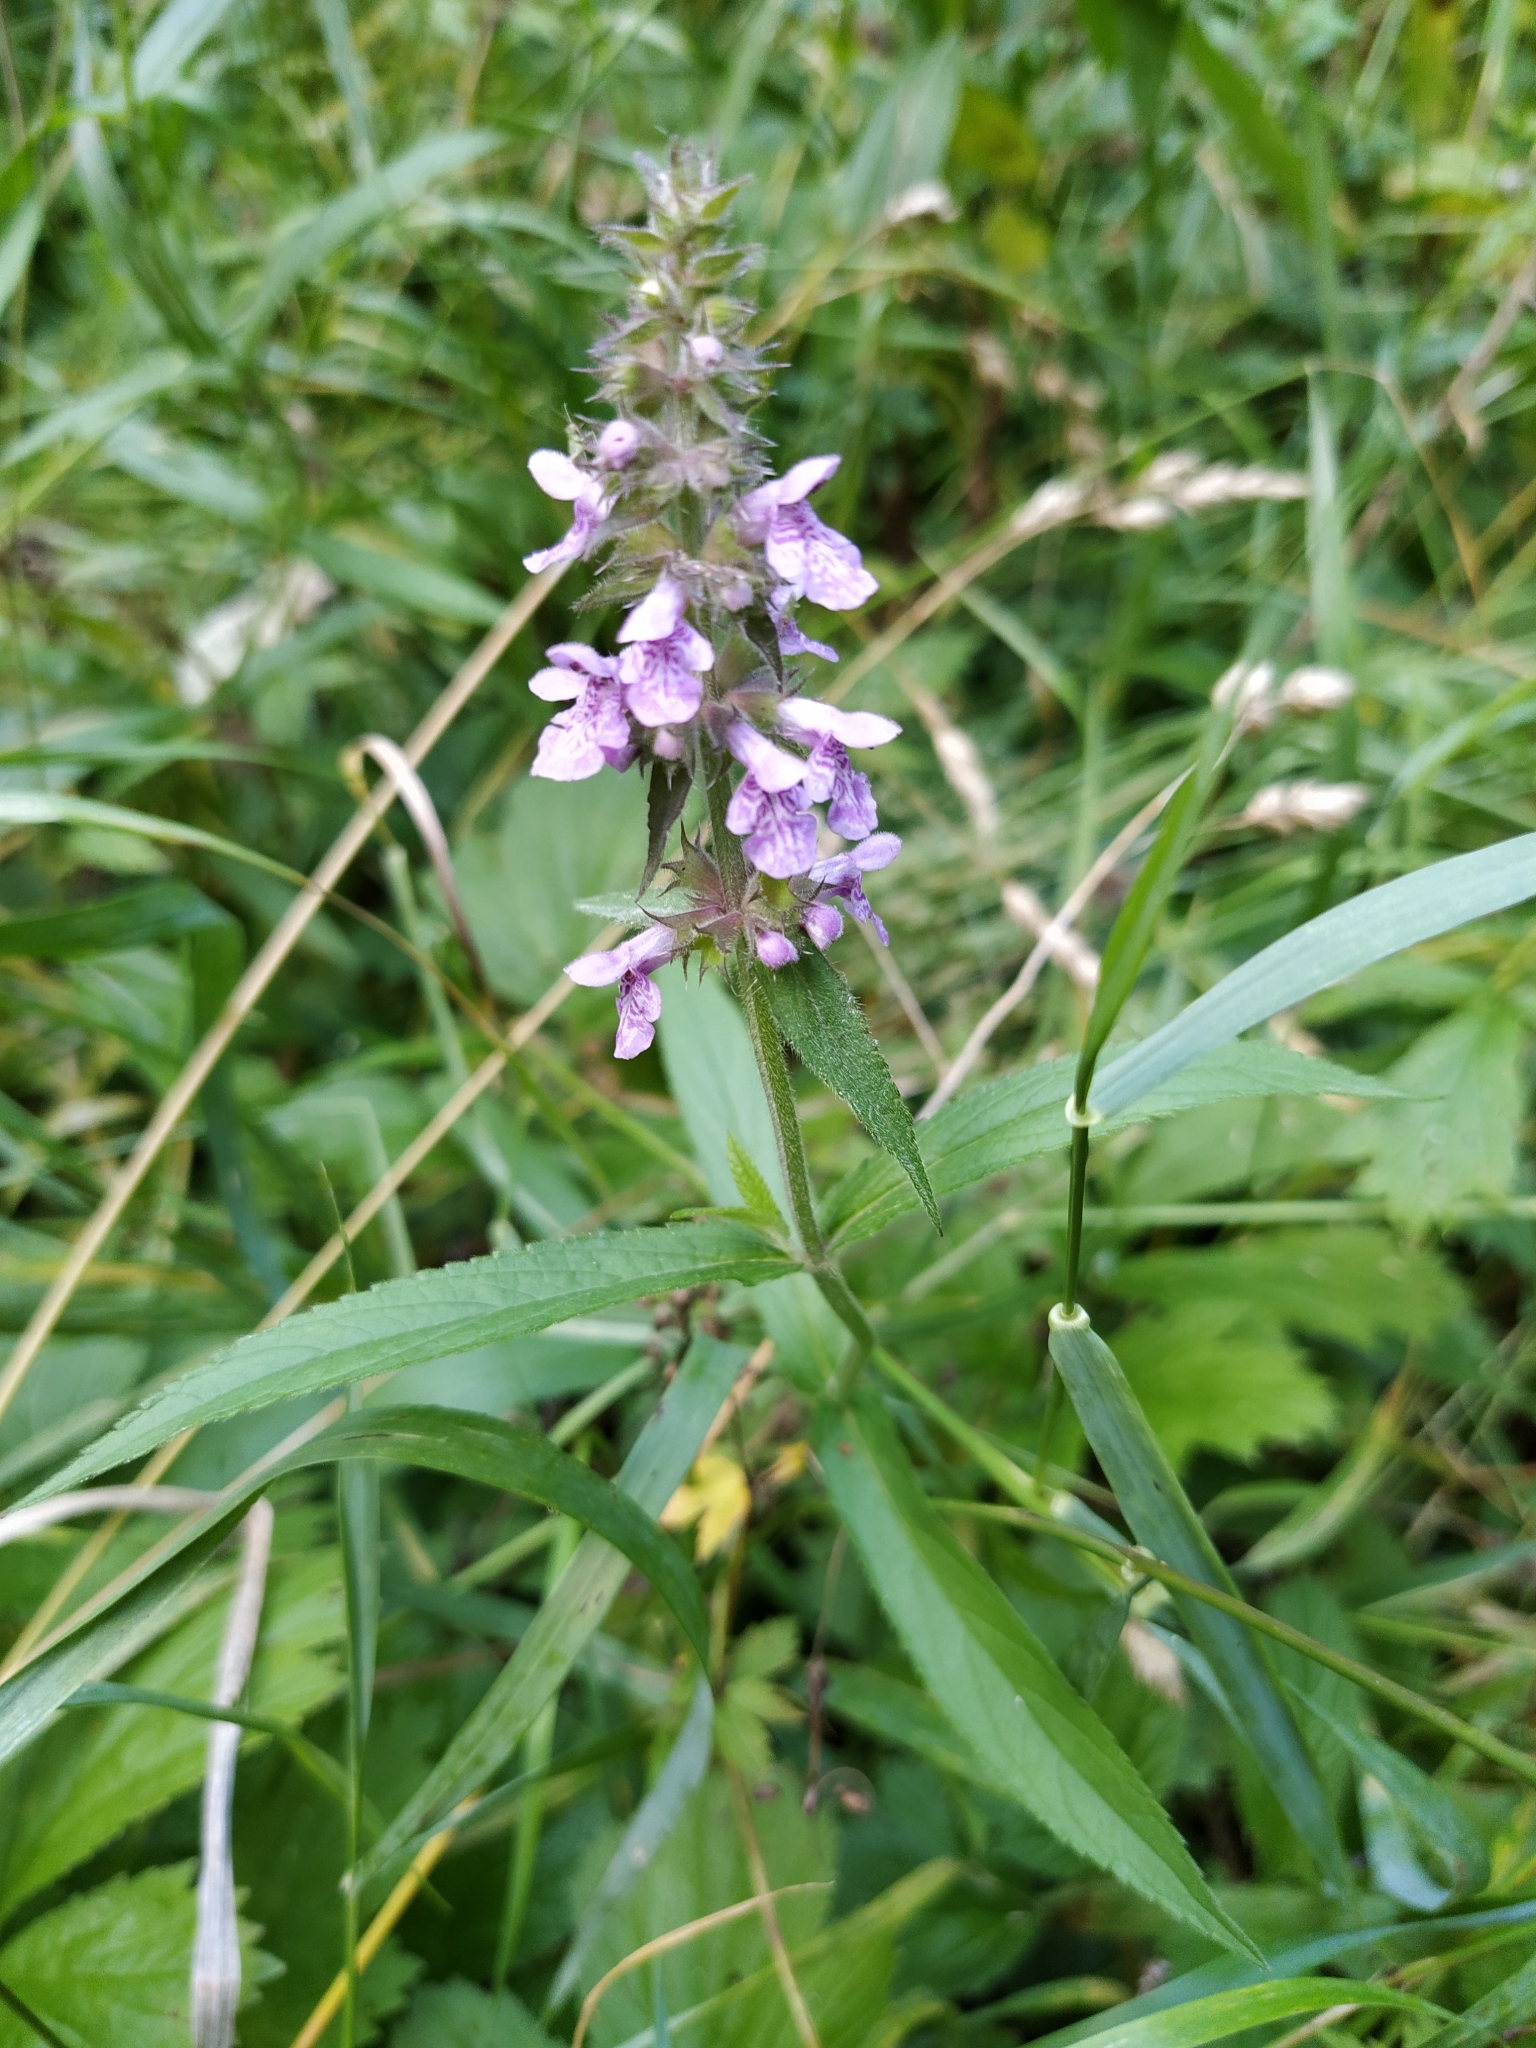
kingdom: Plantae
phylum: Tracheophyta
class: Magnoliopsida
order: Lamiales
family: Lamiaceae
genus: Stachys
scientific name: Stachys palustris
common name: Marsh woundwort
